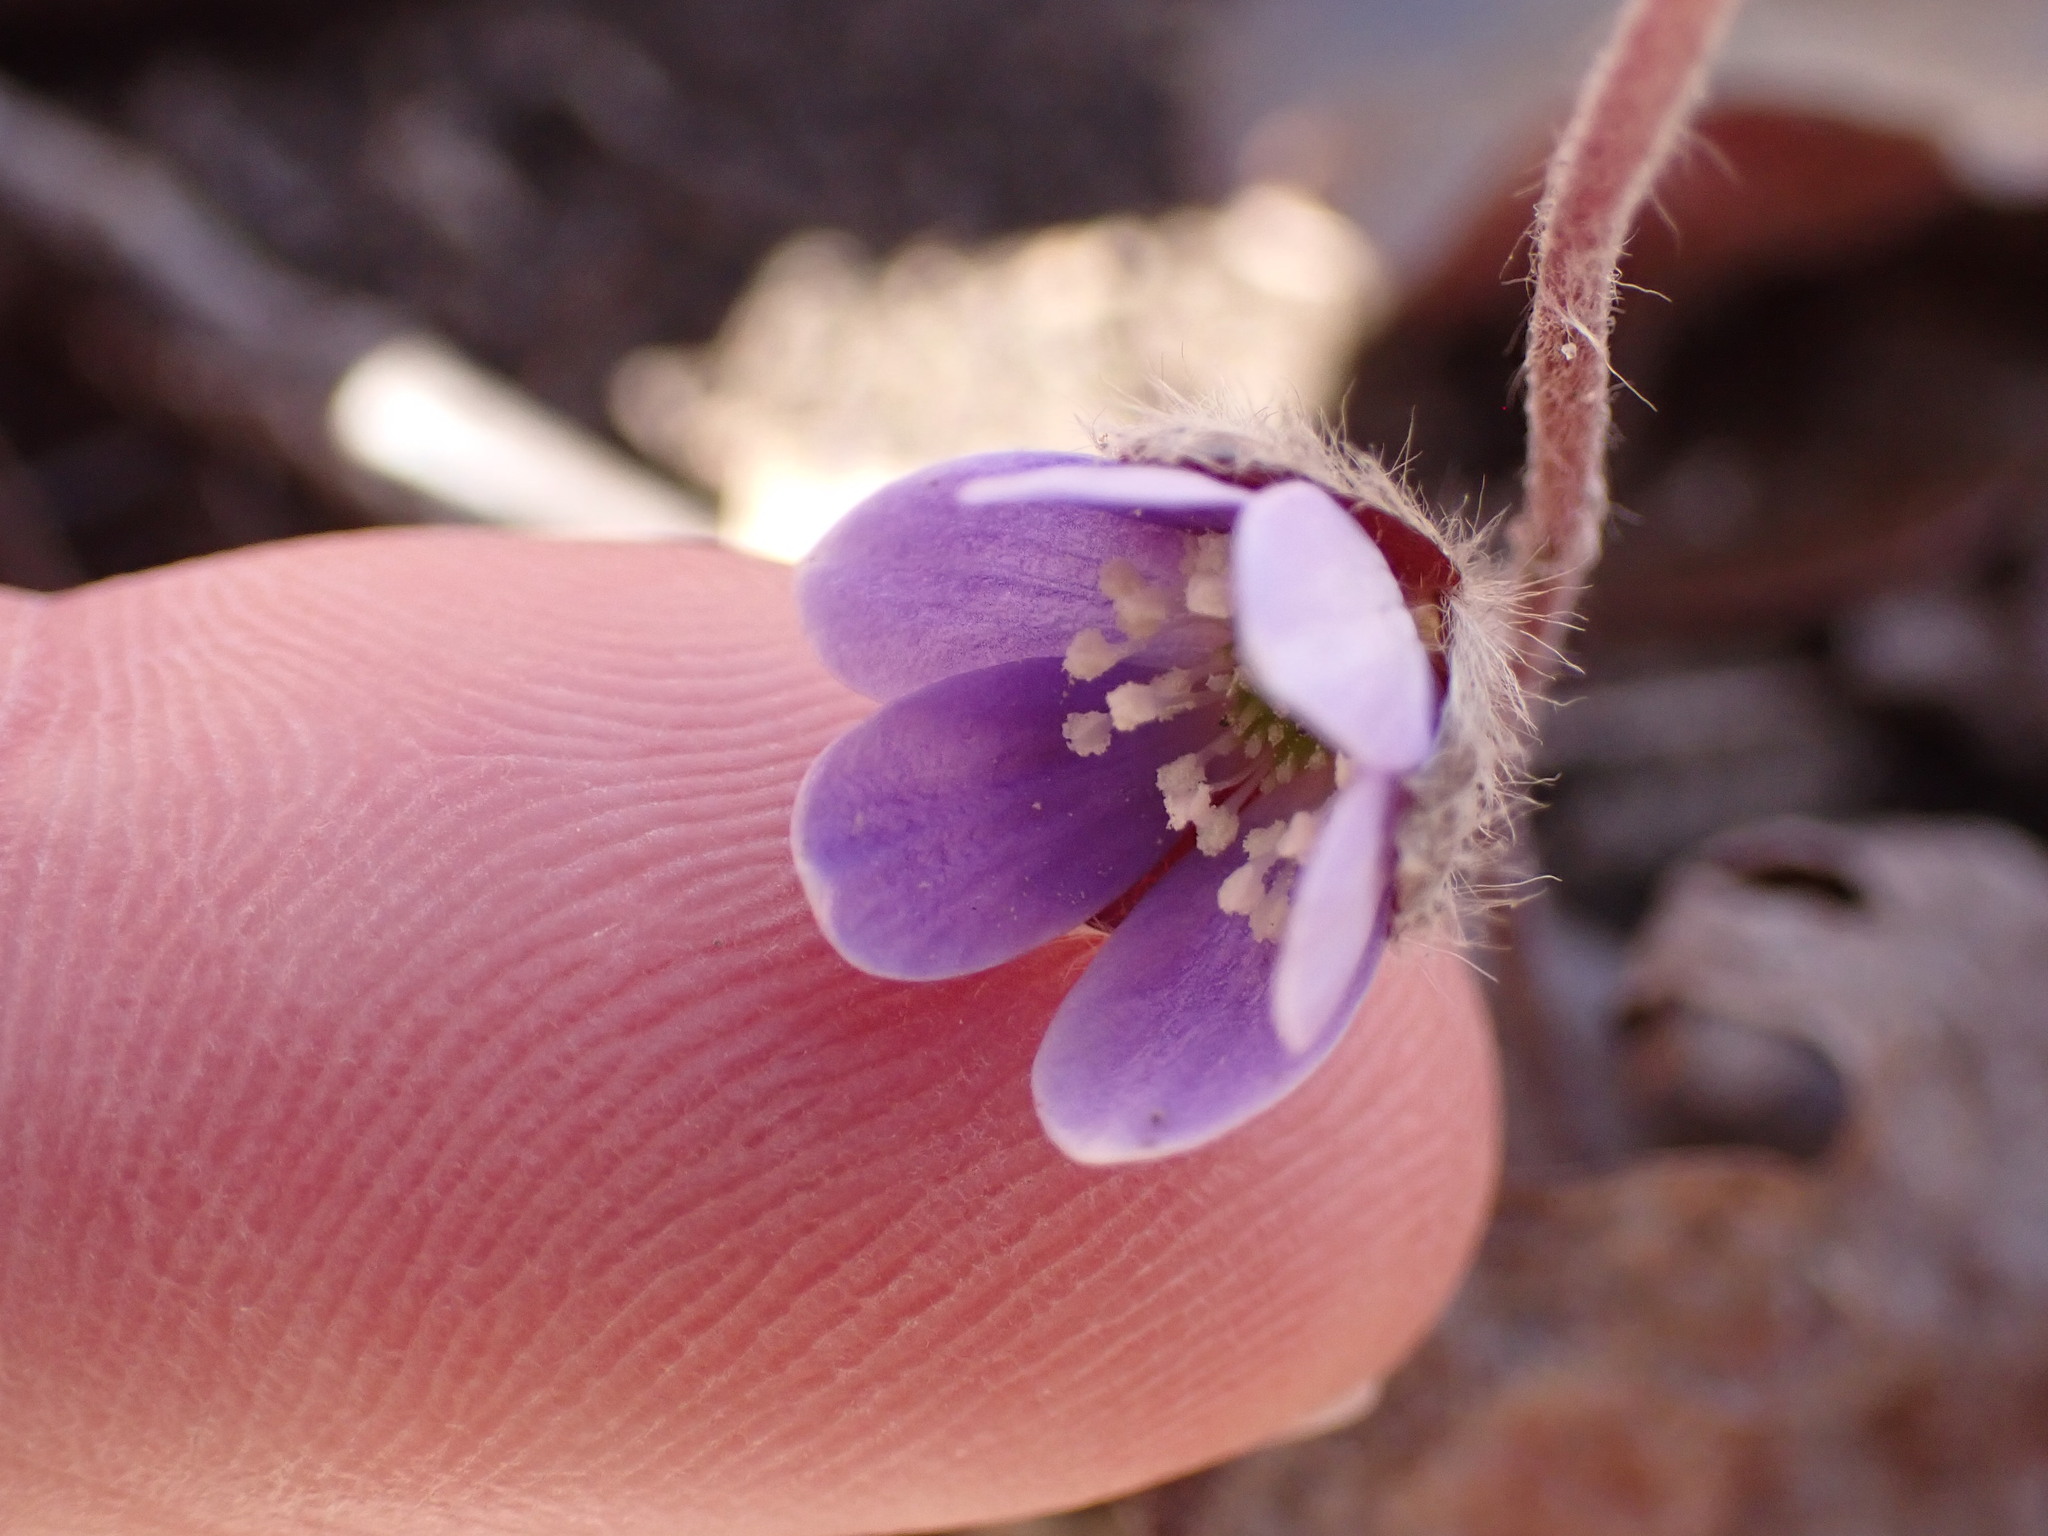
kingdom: Plantae
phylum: Tracheophyta
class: Magnoliopsida
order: Ranunculales
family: Ranunculaceae
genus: Hepatica
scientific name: Hepatica americana
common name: American hepatica
